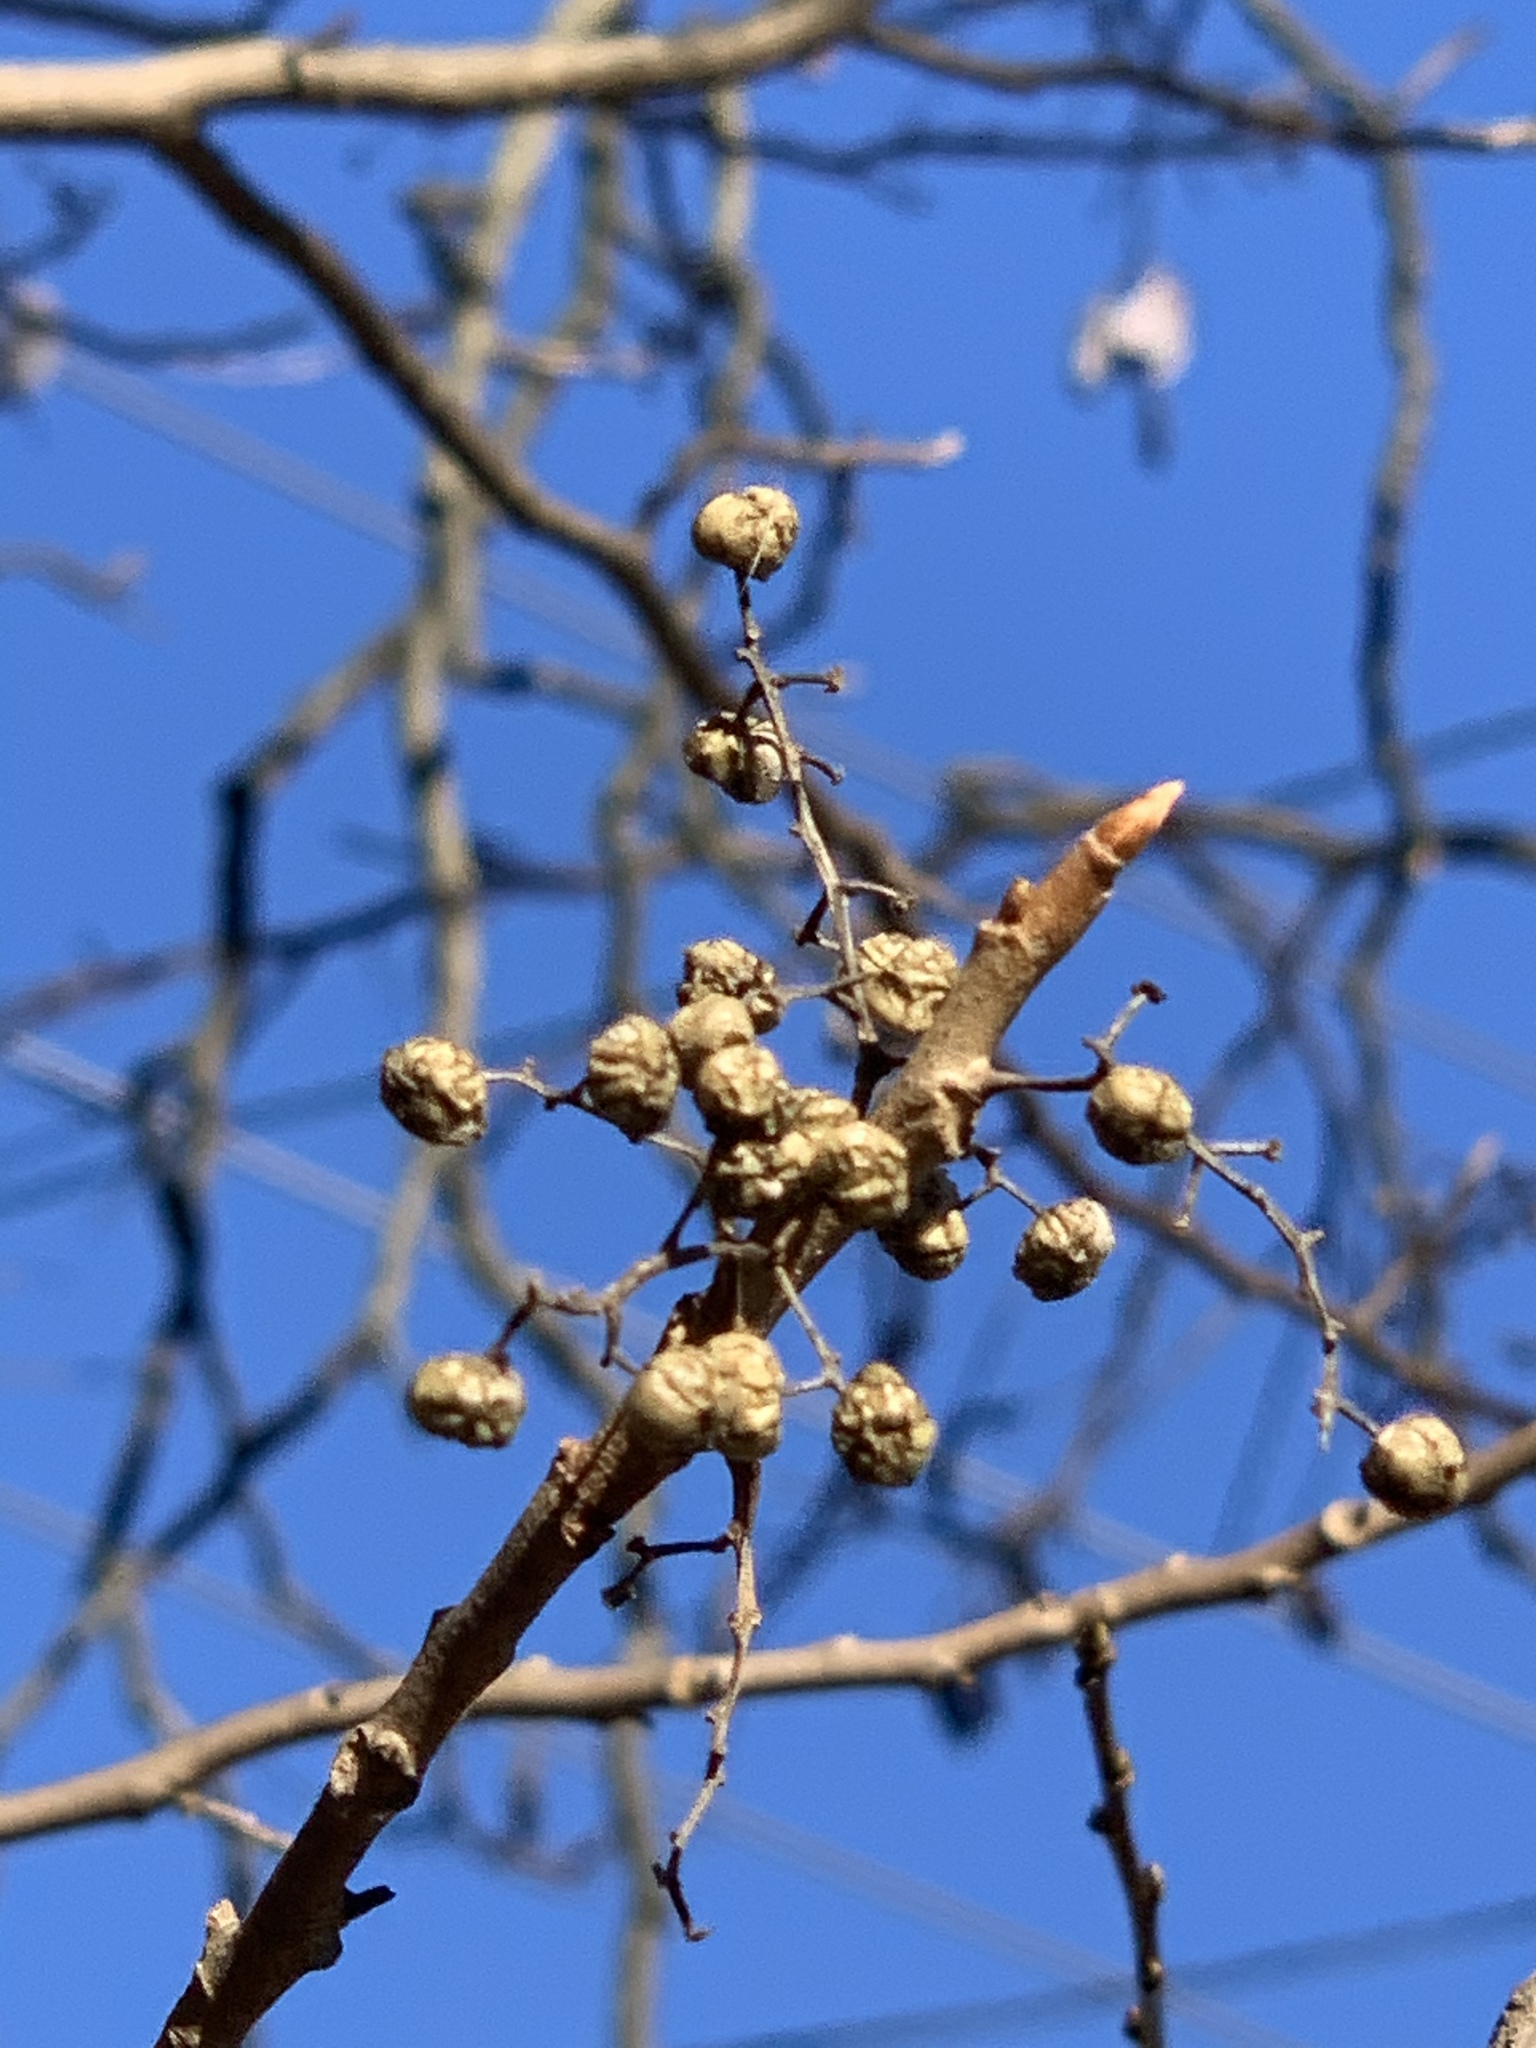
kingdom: Plantae
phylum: Tracheophyta
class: Magnoliopsida
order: Sapindales
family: Anacardiaceae
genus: Toxicodendron
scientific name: Toxicodendron radicans
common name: Poison ivy
